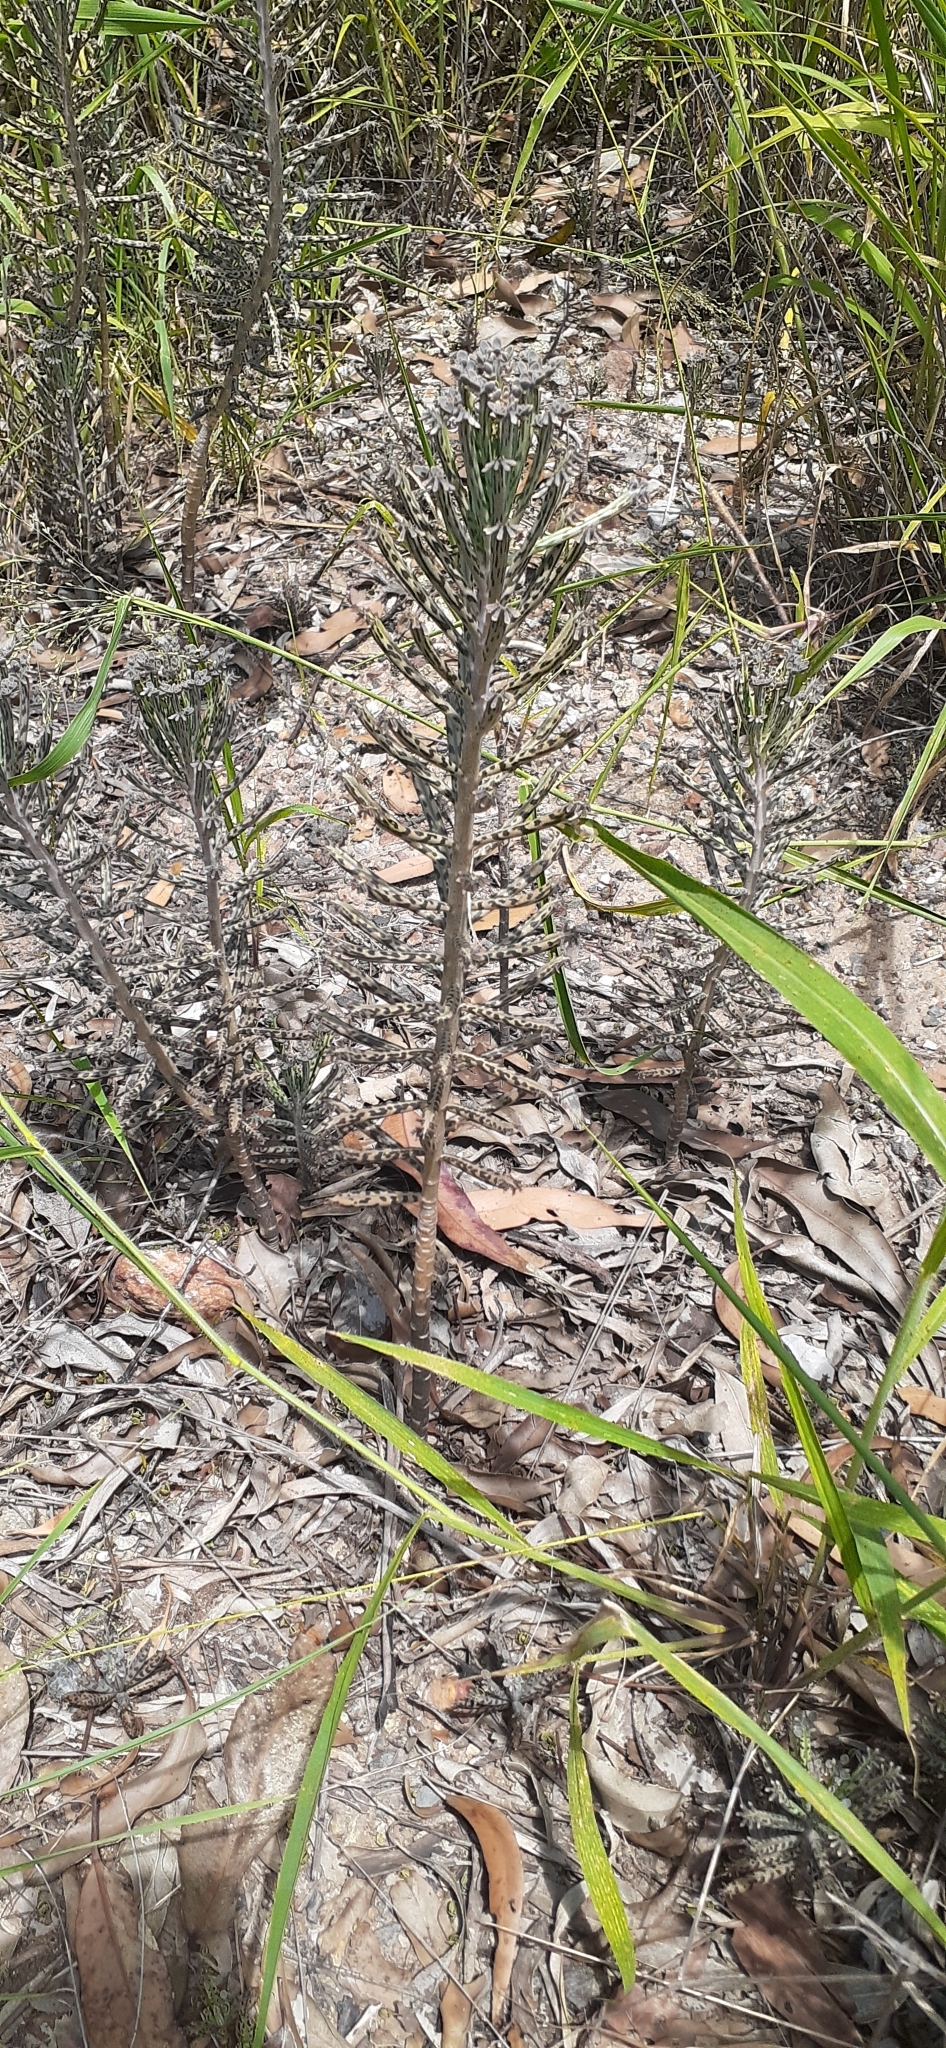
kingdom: Plantae
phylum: Tracheophyta
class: Magnoliopsida
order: Saxifragales
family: Crassulaceae
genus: Kalanchoe
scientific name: Kalanchoe delagoensis
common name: Chandelier plant
